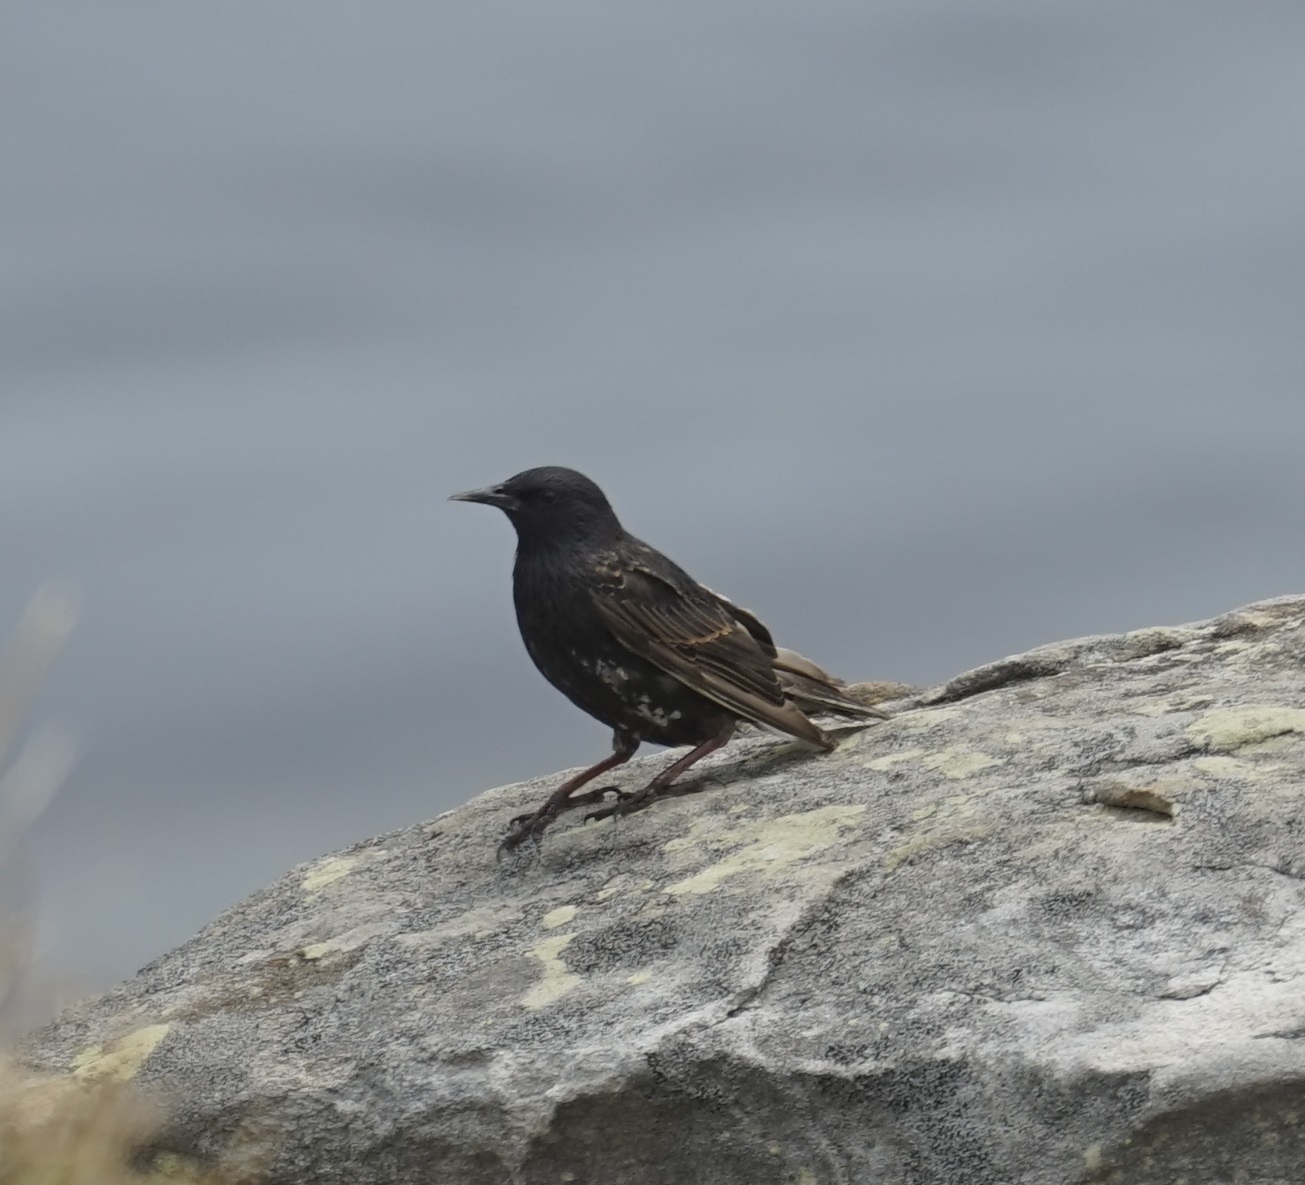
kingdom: Animalia
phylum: Chordata
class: Aves
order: Passeriformes
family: Sturnidae
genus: Sturnus
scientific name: Sturnus vulgaris
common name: Common starling
